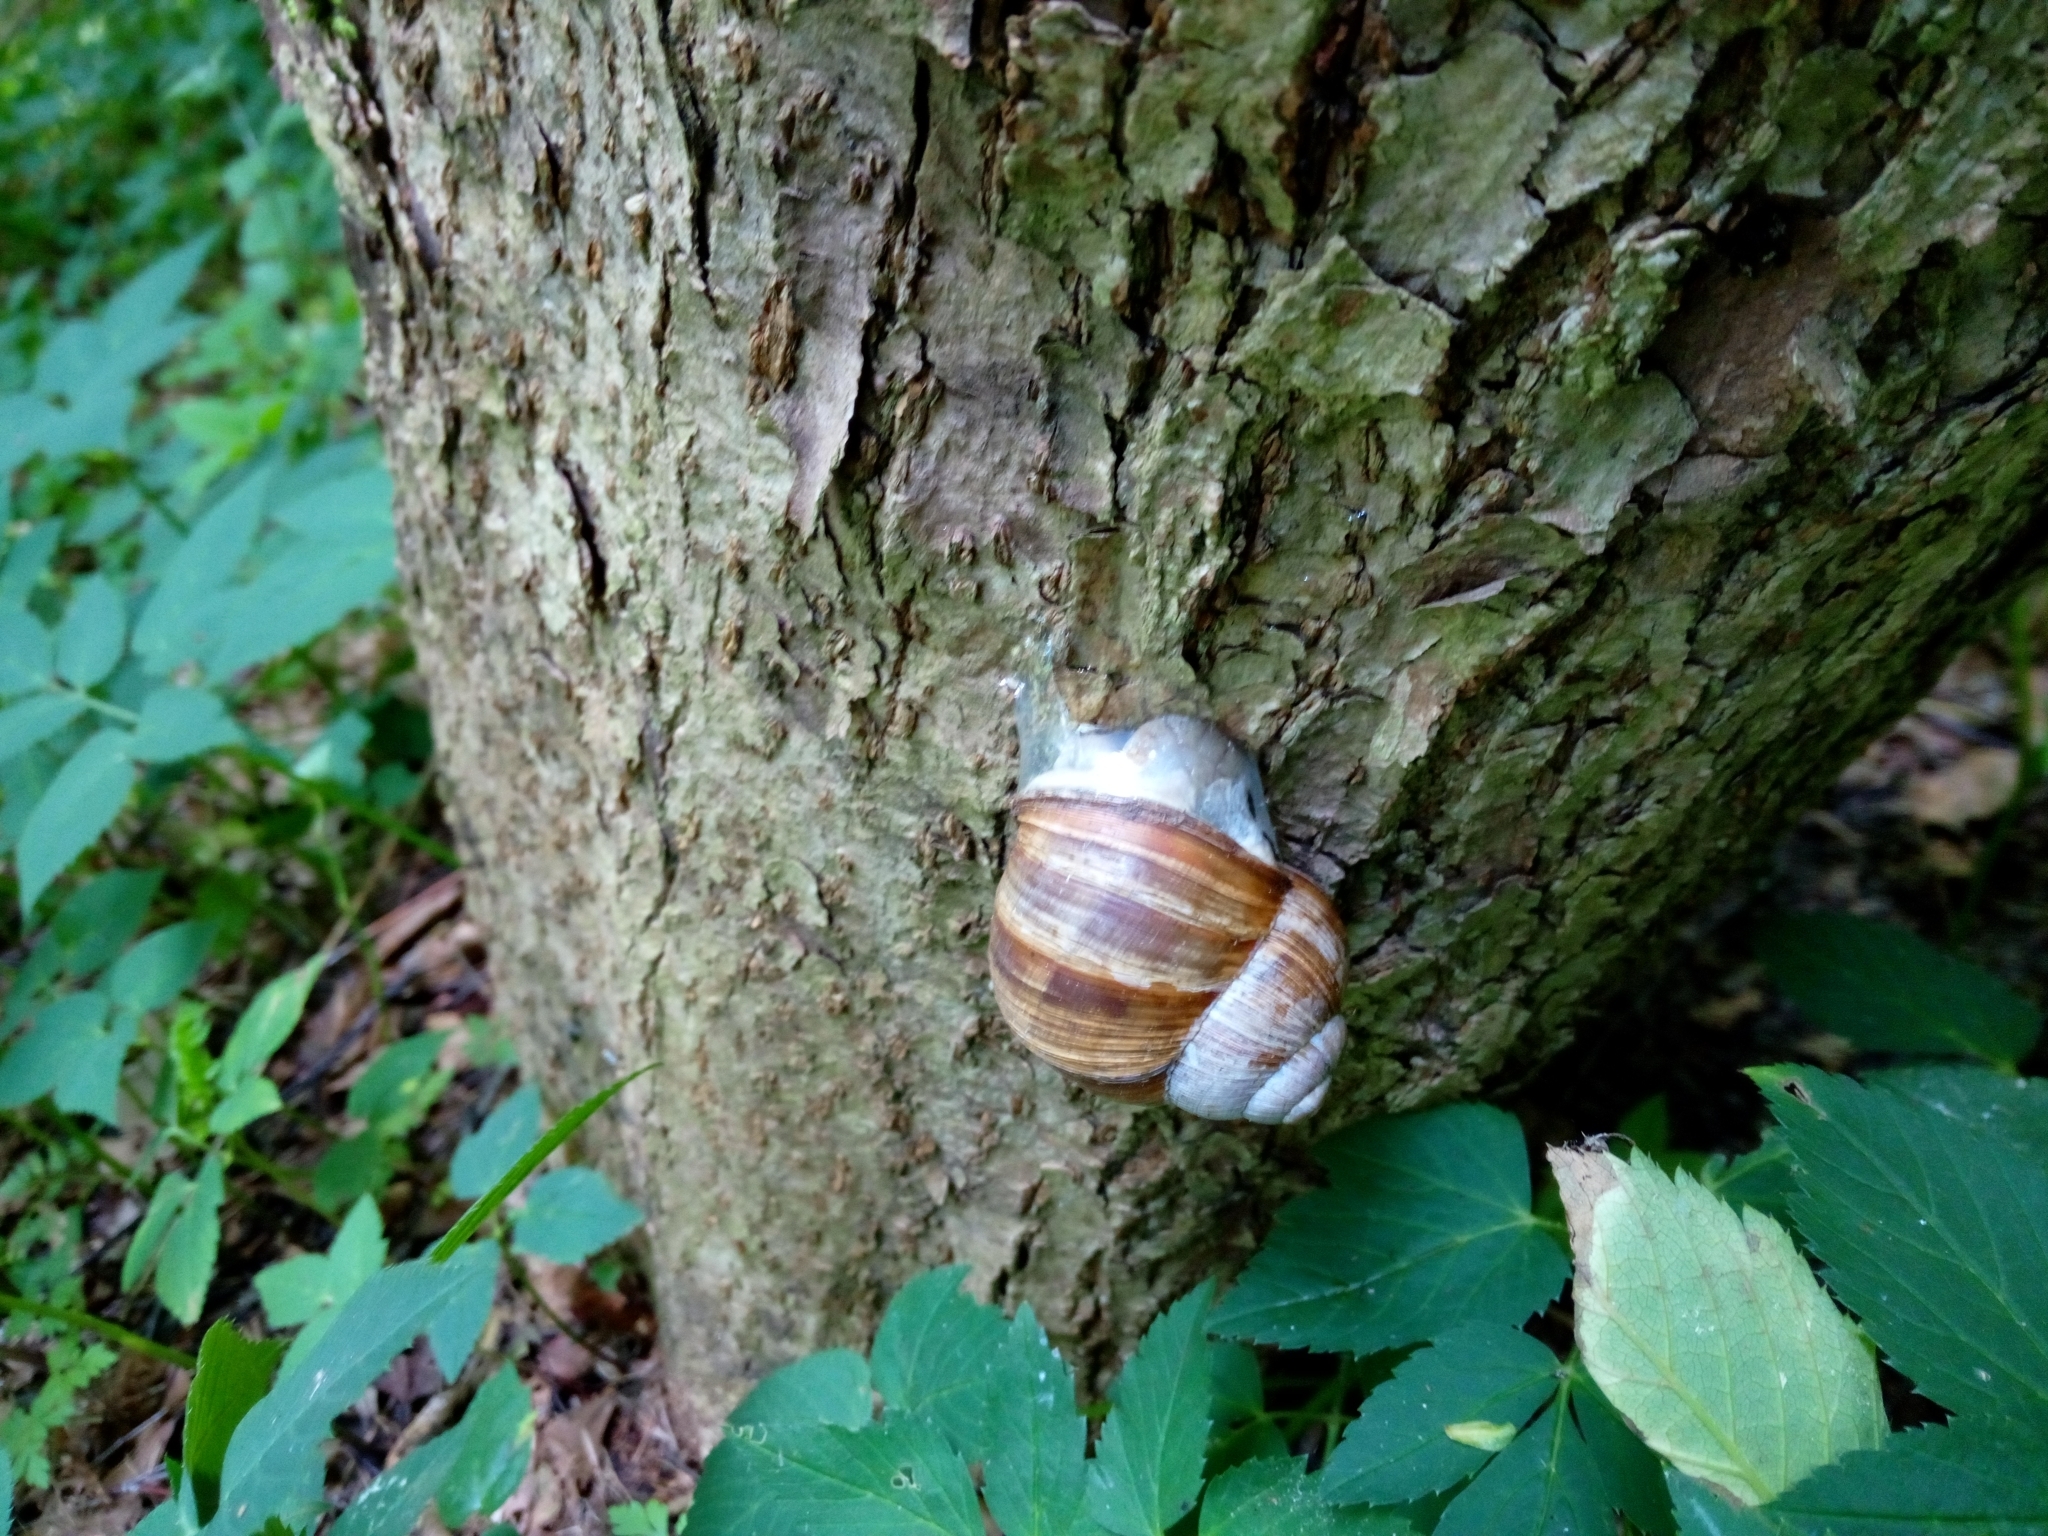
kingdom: Animalia
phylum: Mollusca
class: Gastropoda
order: Stylommatophora
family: Helicidae
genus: Helix
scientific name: Helix pomatia
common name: Roman snail
